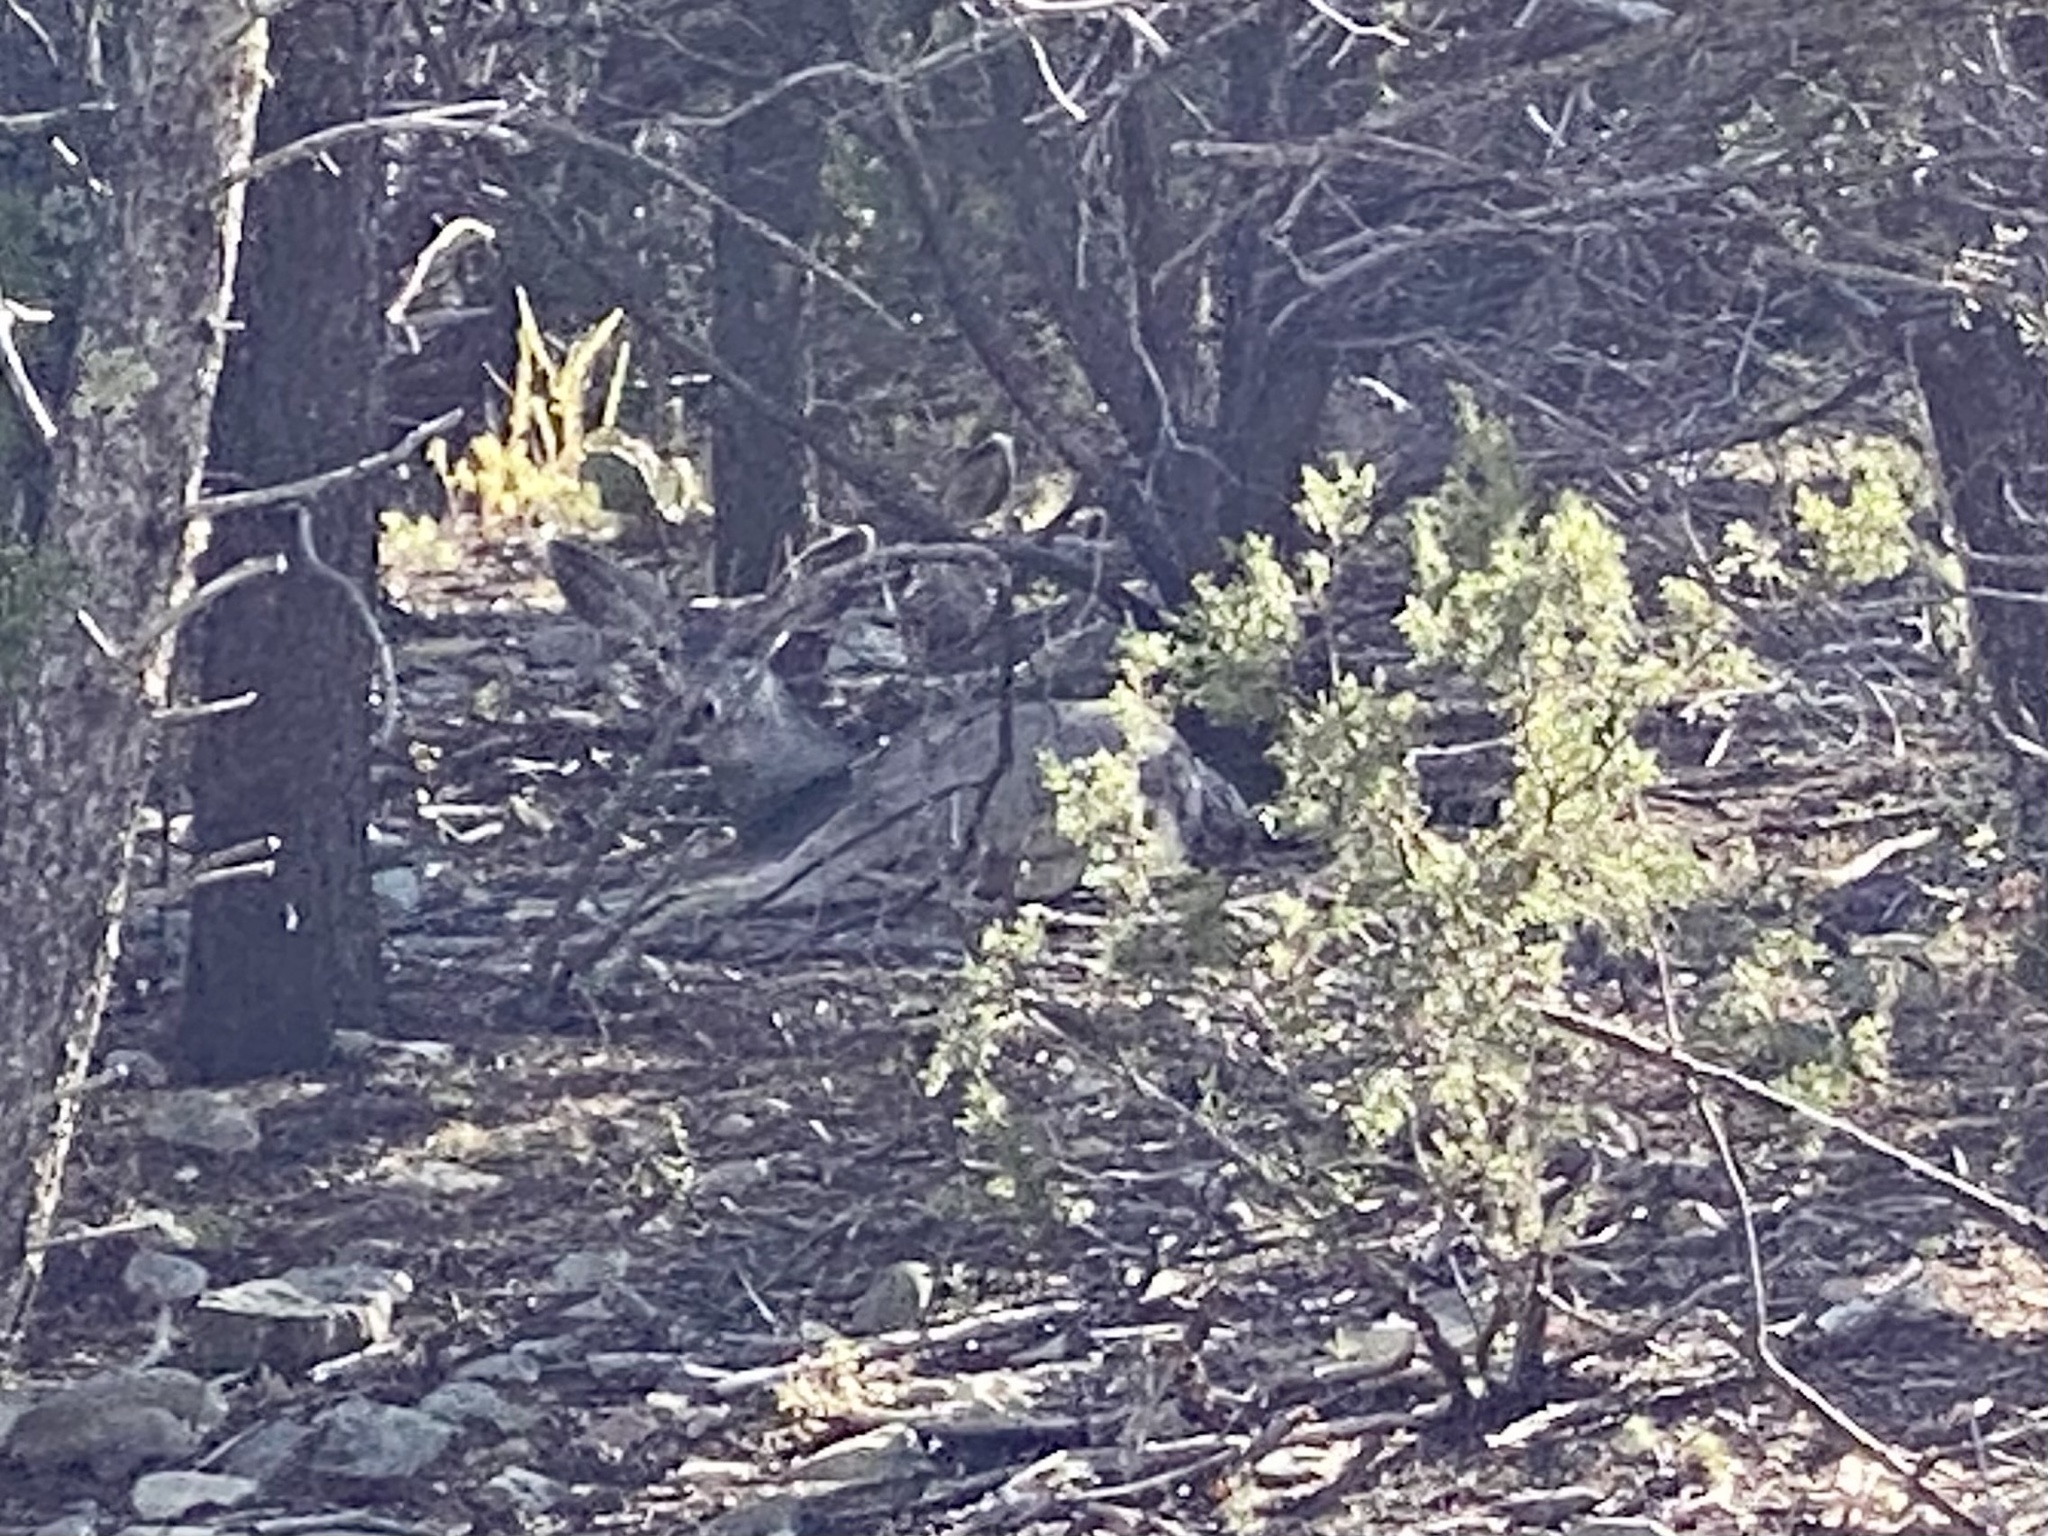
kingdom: Animalia
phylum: Chordata
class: Mammalia
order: Artiodactyla
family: Cervidae
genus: Odocoileus
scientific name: Odocoileus hemionus
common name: Mule deer
